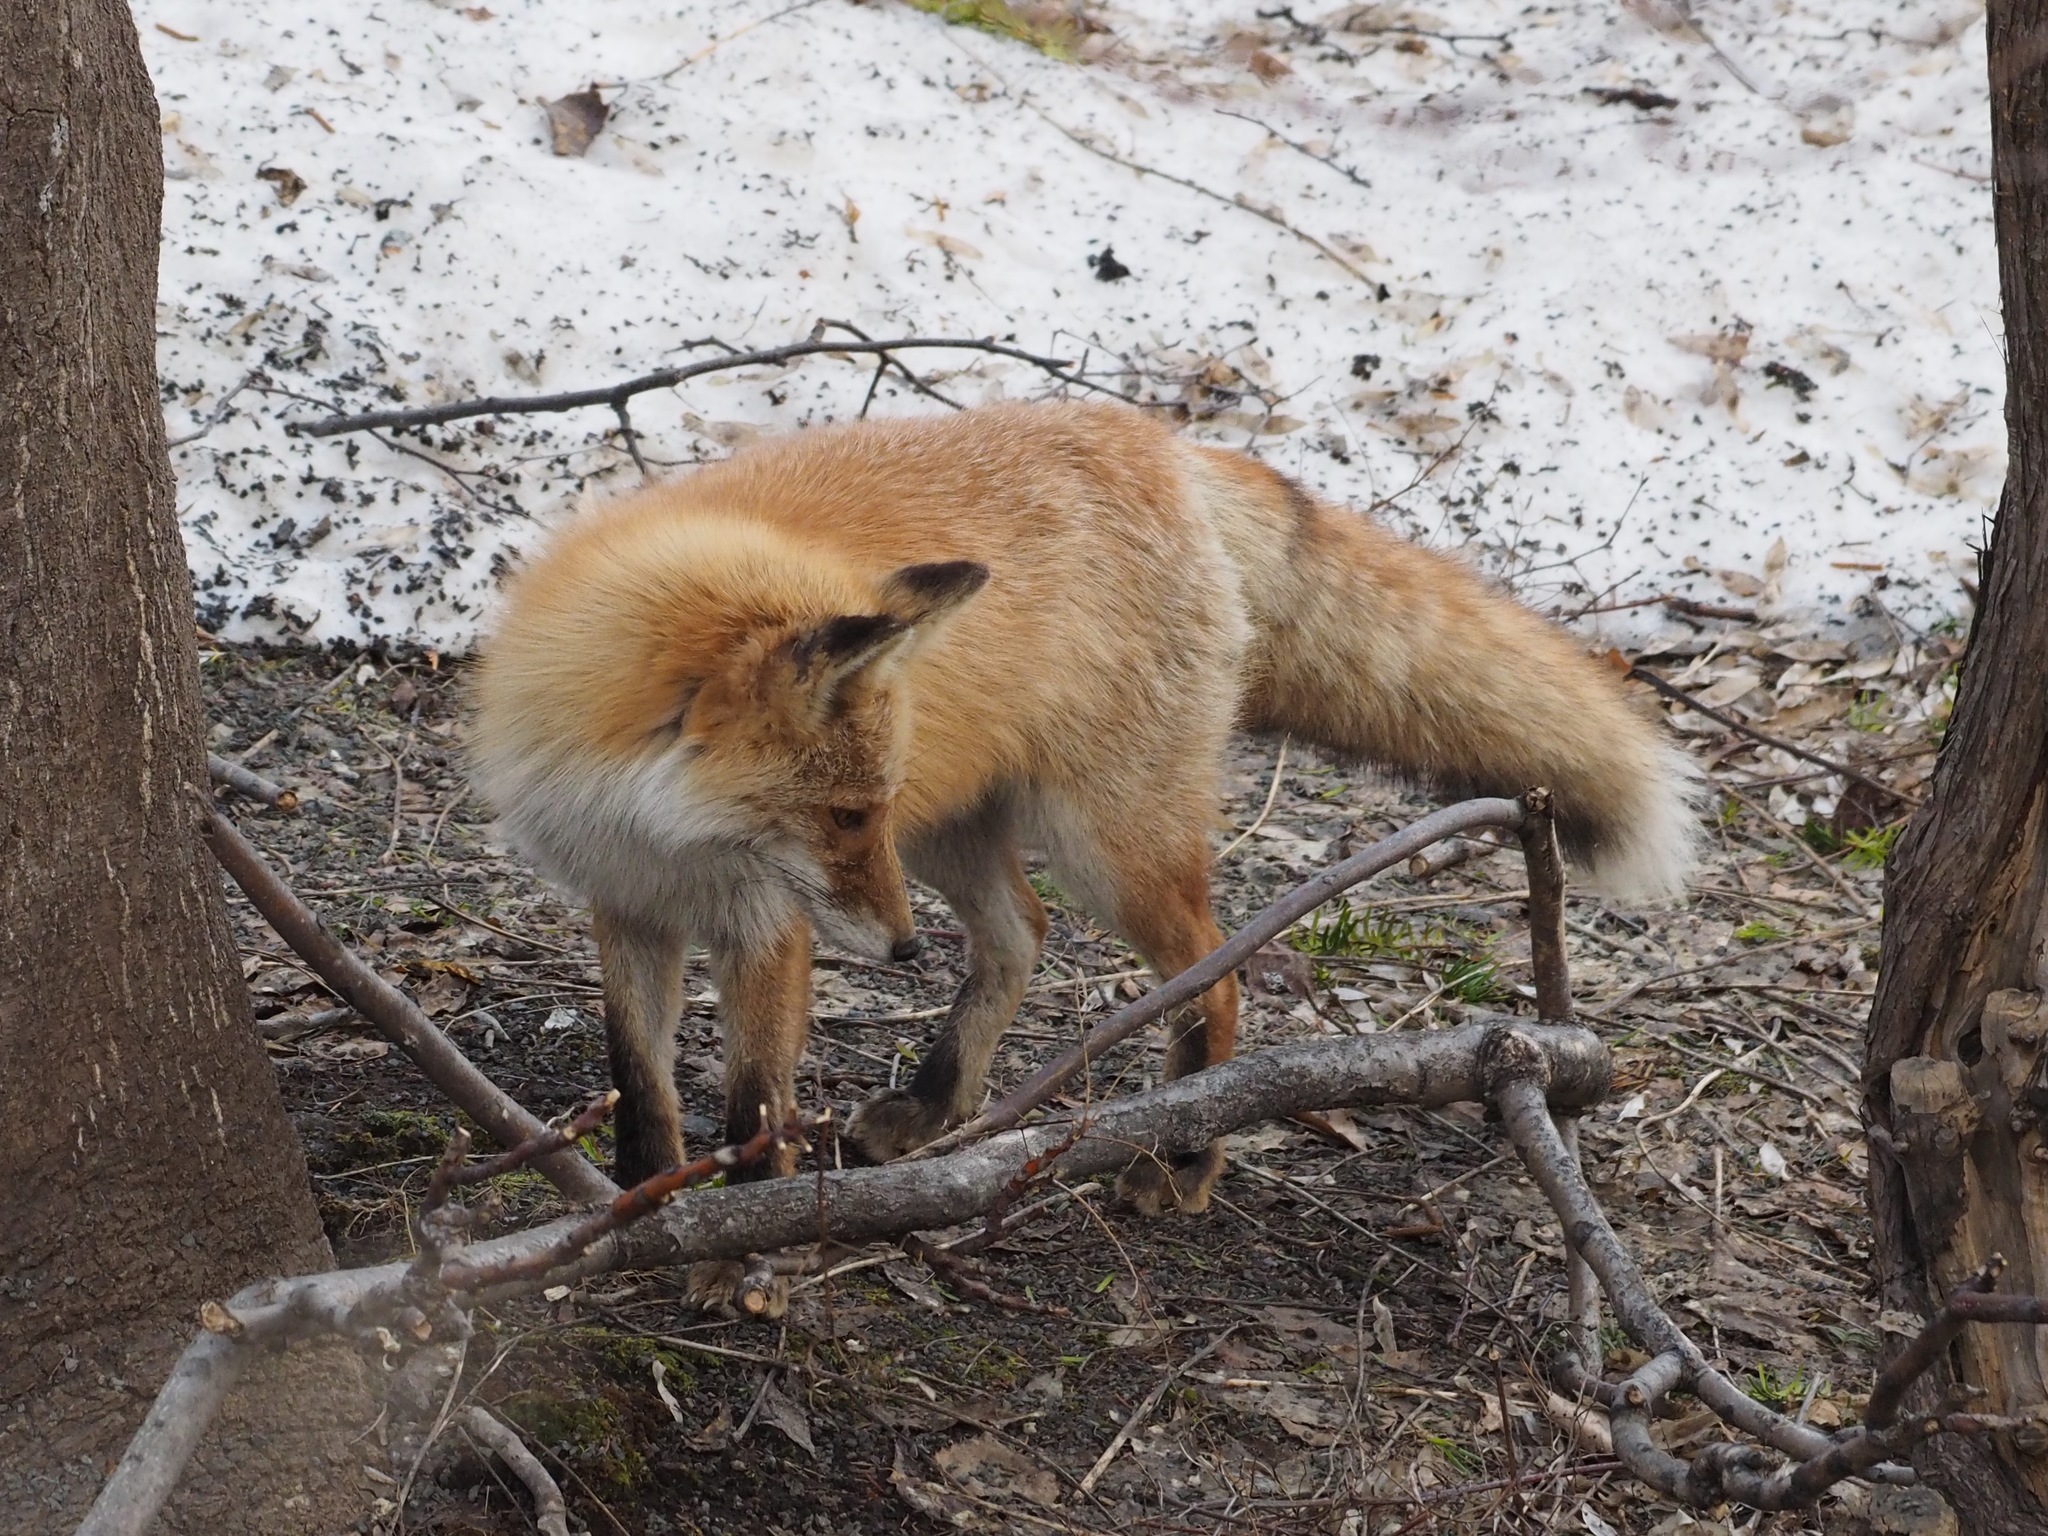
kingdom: Animalia
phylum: Chordata
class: Mammalia
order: Carnivora
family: Canidae
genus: Vulpes
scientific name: Vulpes vulpes
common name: Red fox
